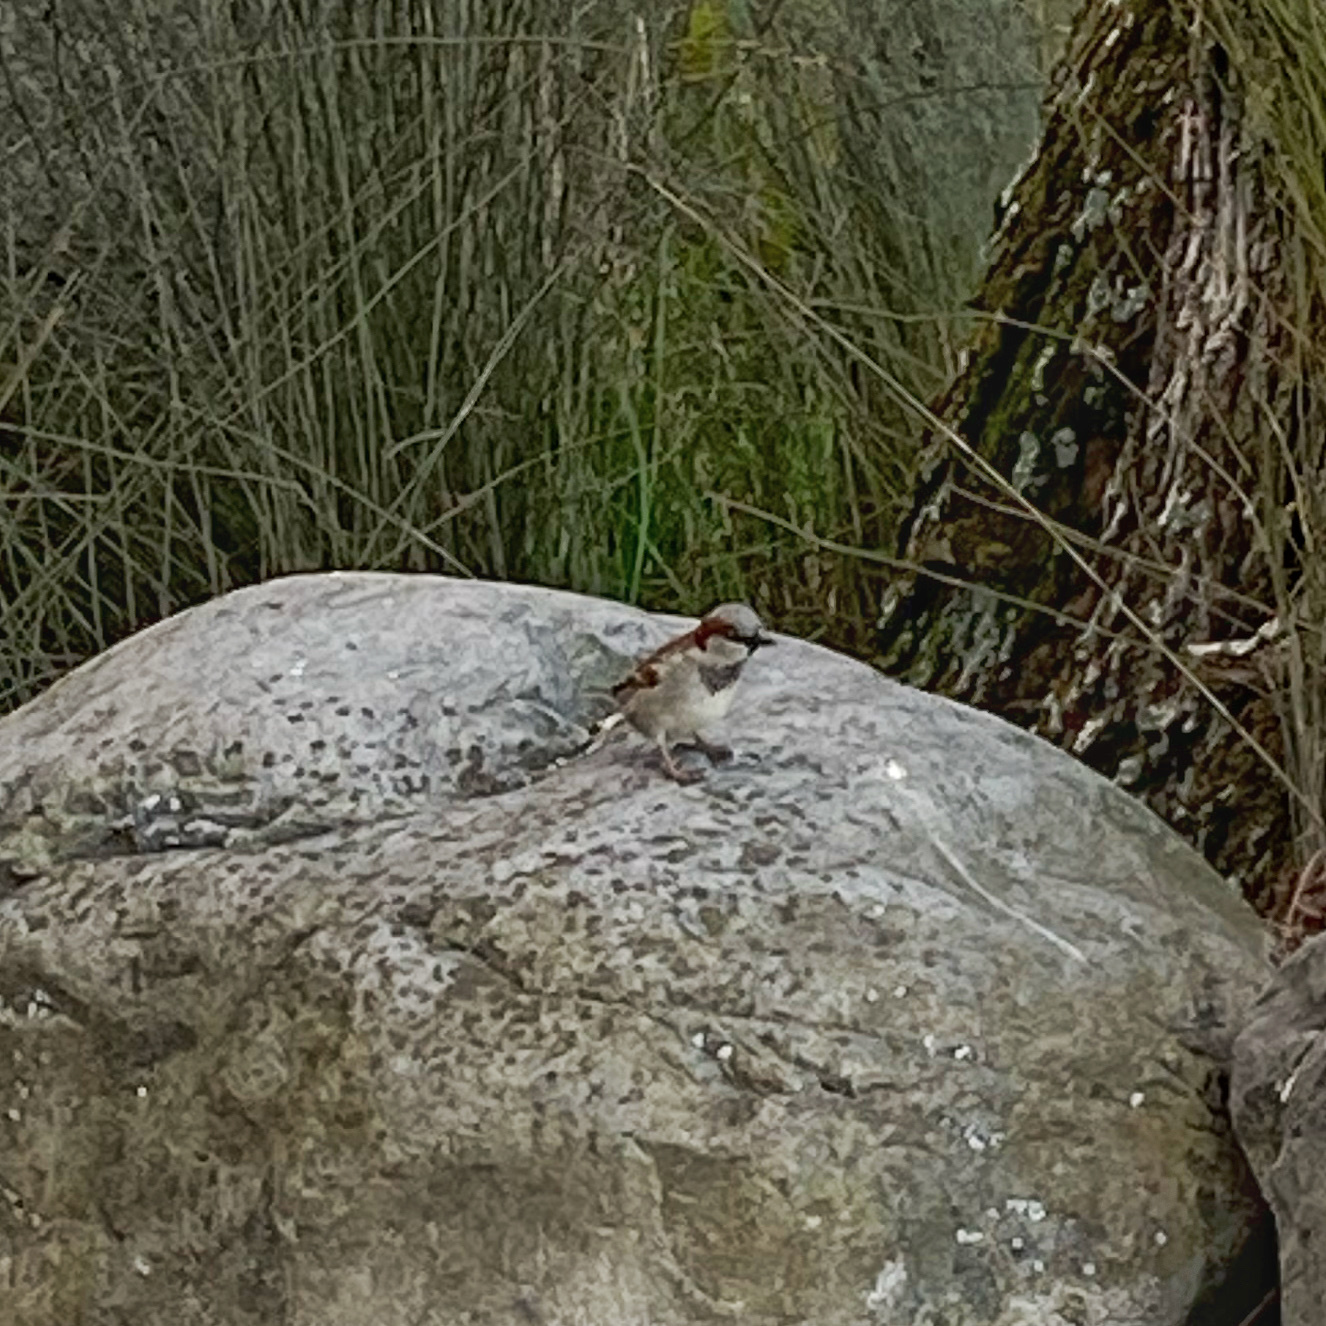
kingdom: Animalia
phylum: Chordata
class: Aves
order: Passeriformes
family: Passeridae
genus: Passer
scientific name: Passer domesticus
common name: House sparrow
